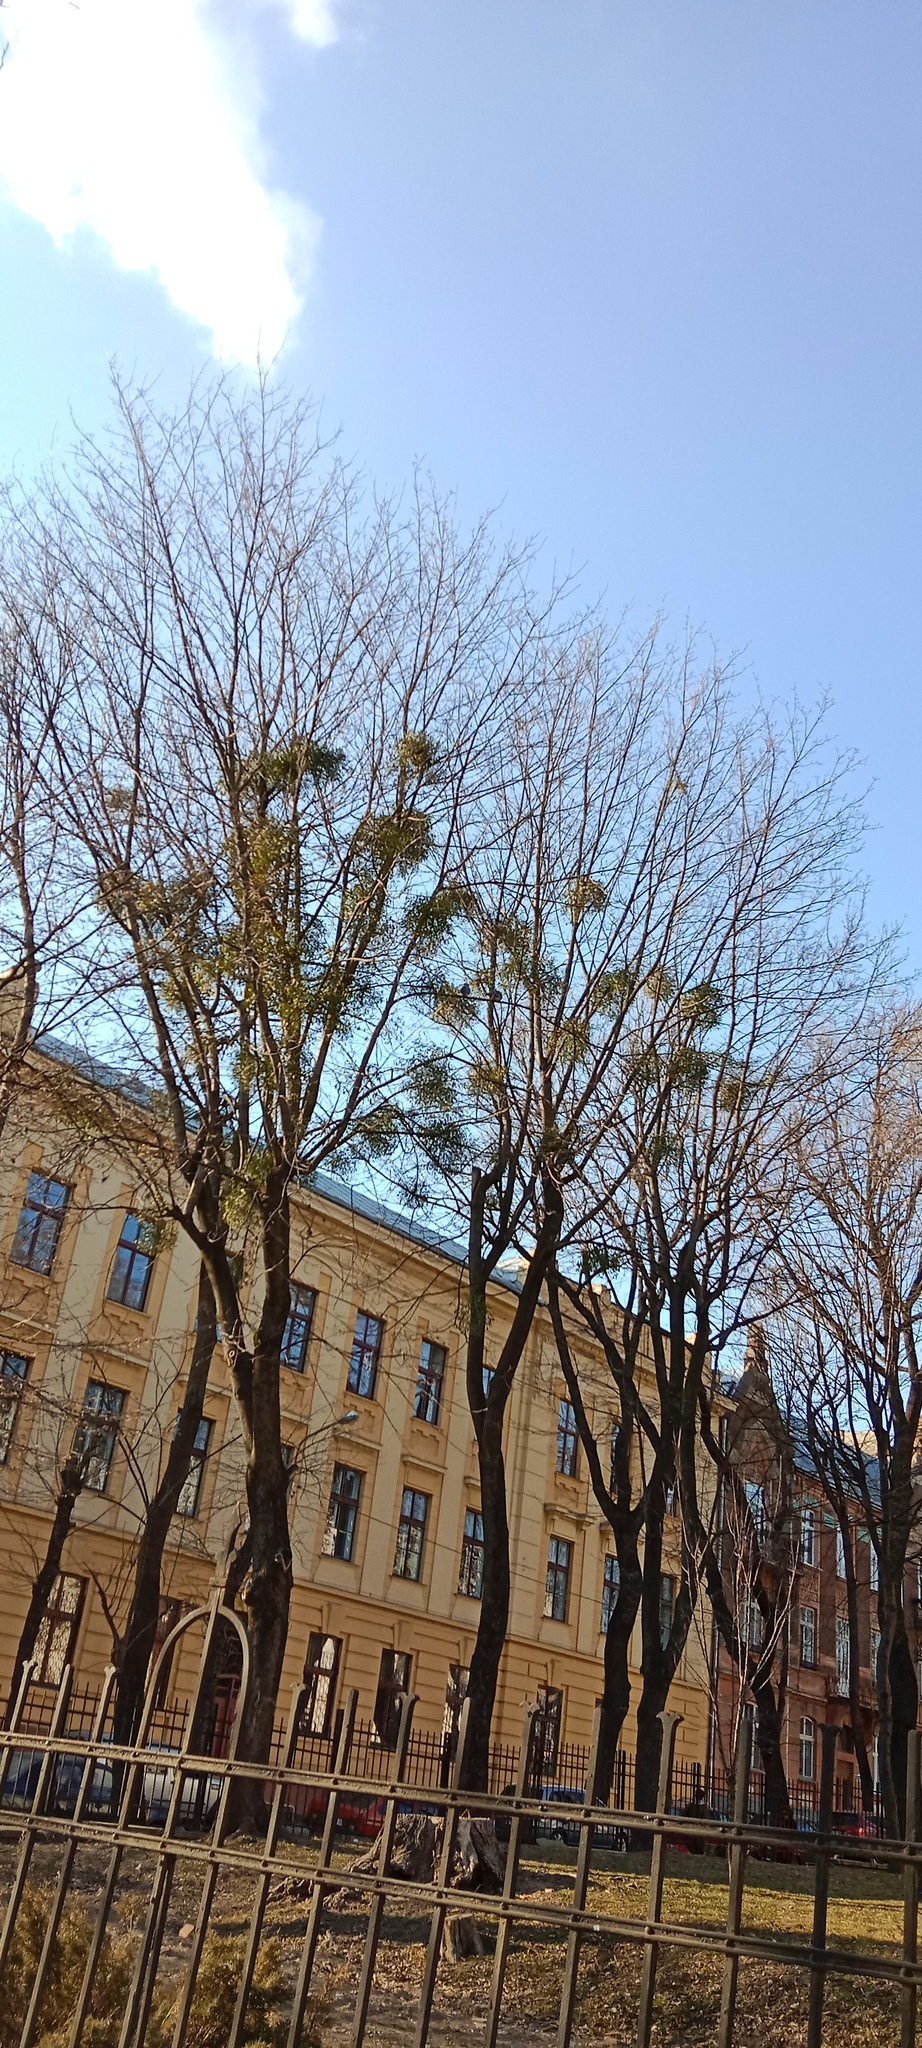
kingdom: Plantae
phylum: Tracheophyta
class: Magnoliopsida
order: Santalales
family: Viscaceae
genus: Viscum
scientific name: Viscum album
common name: Mistletoe
